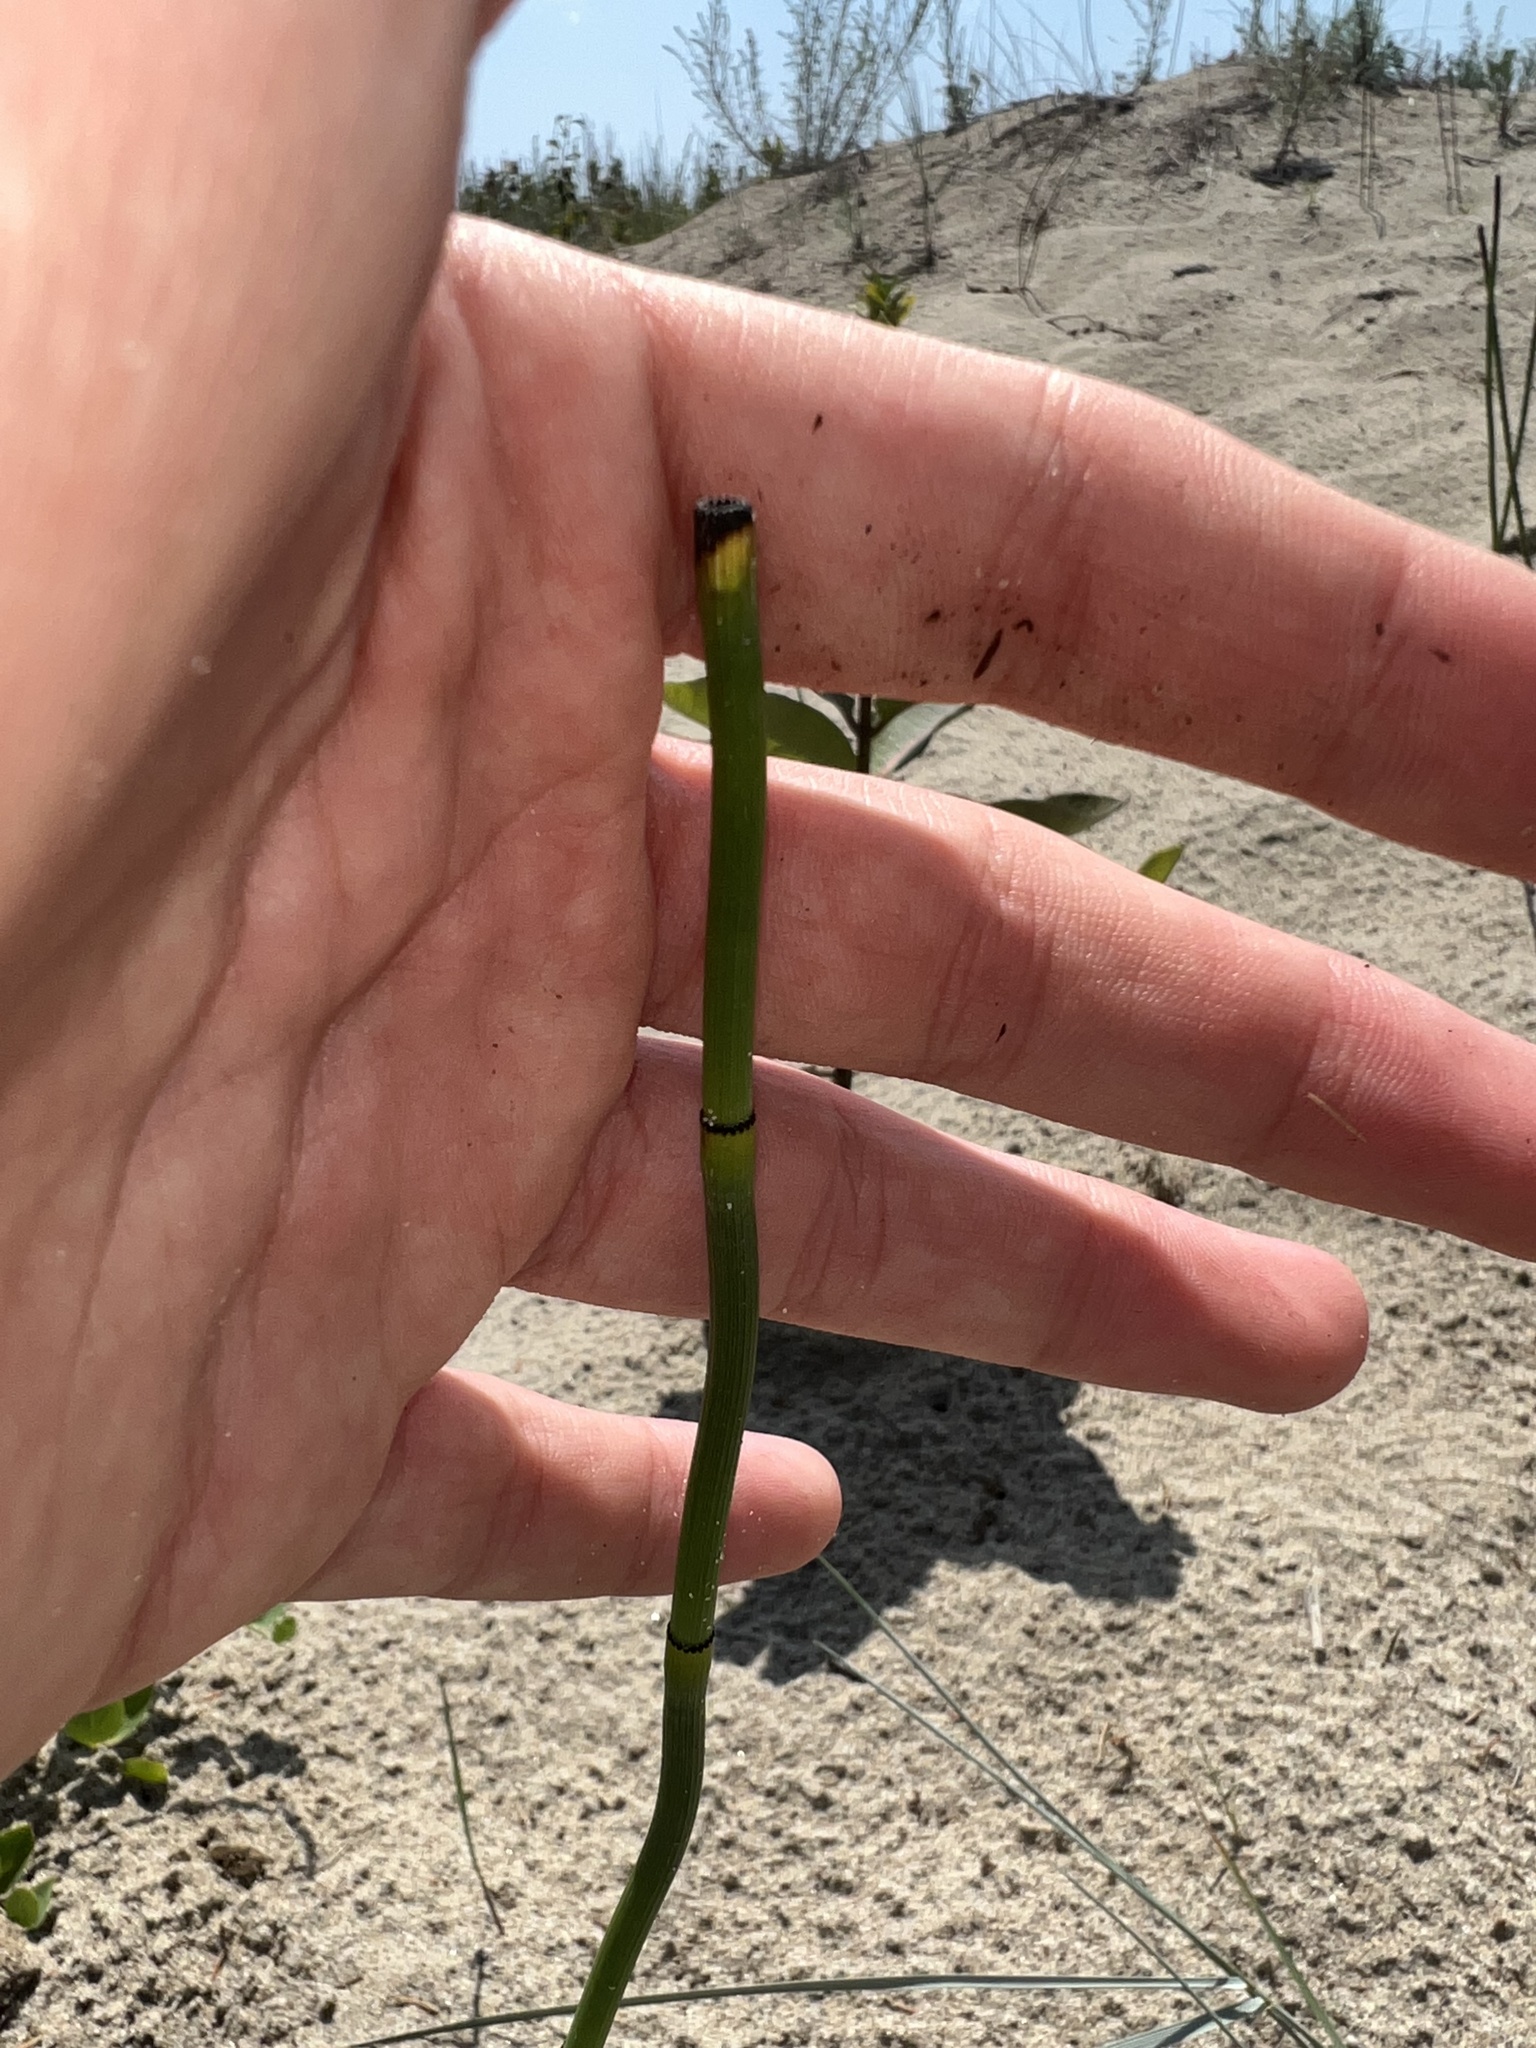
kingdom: Plantae
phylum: Tracheophyta
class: Polypodiopsida
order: Equisetales
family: Equisetaceae
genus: Equisetum
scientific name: Equisetum laevigatum
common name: Smooth scouring-rush
